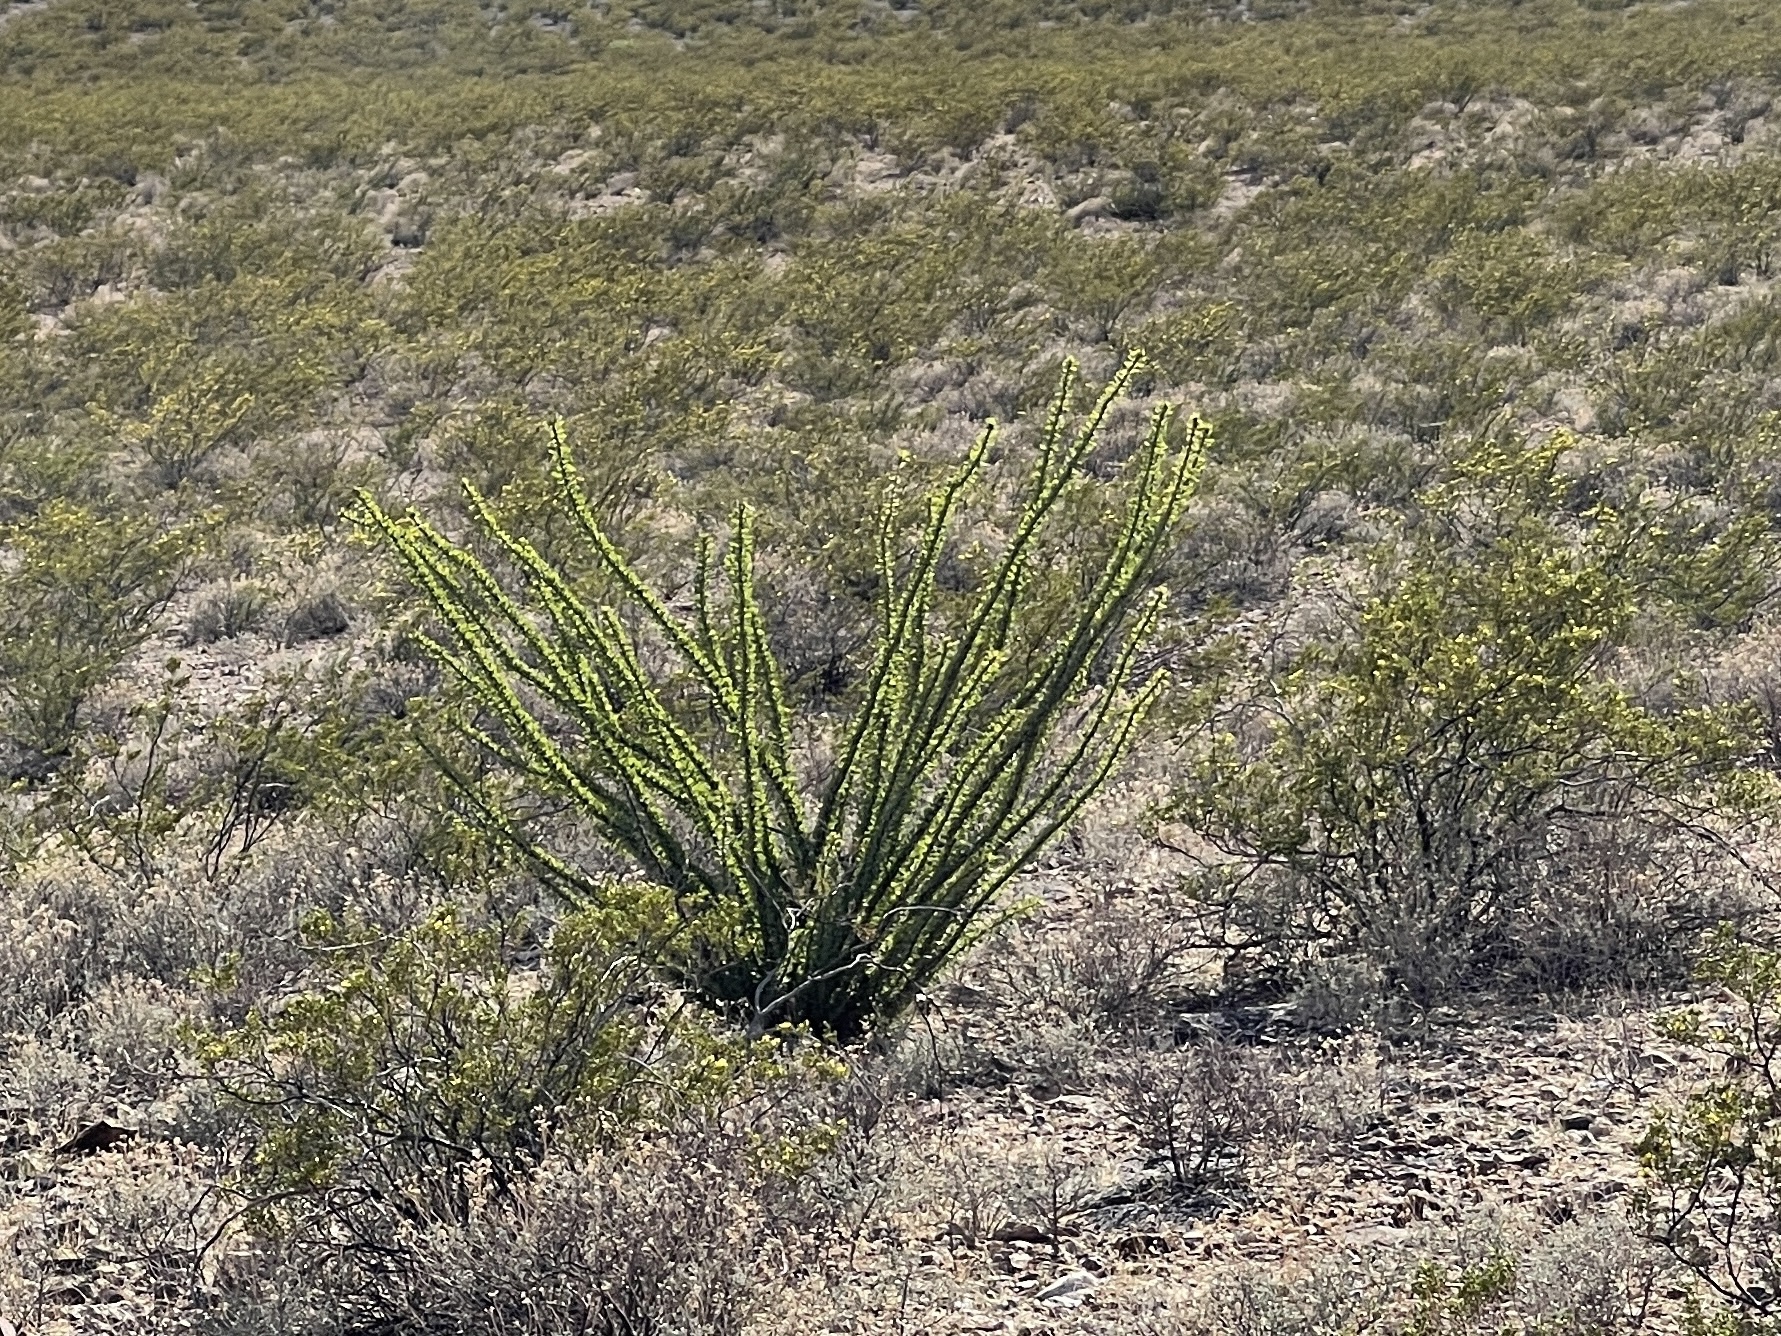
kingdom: Plantae
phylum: Tracheophyta
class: Magnoliopsida
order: Ericales
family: Fouquieriaceae
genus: Fouquieria
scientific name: Fouquieria splendens
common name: Vine-cactus
